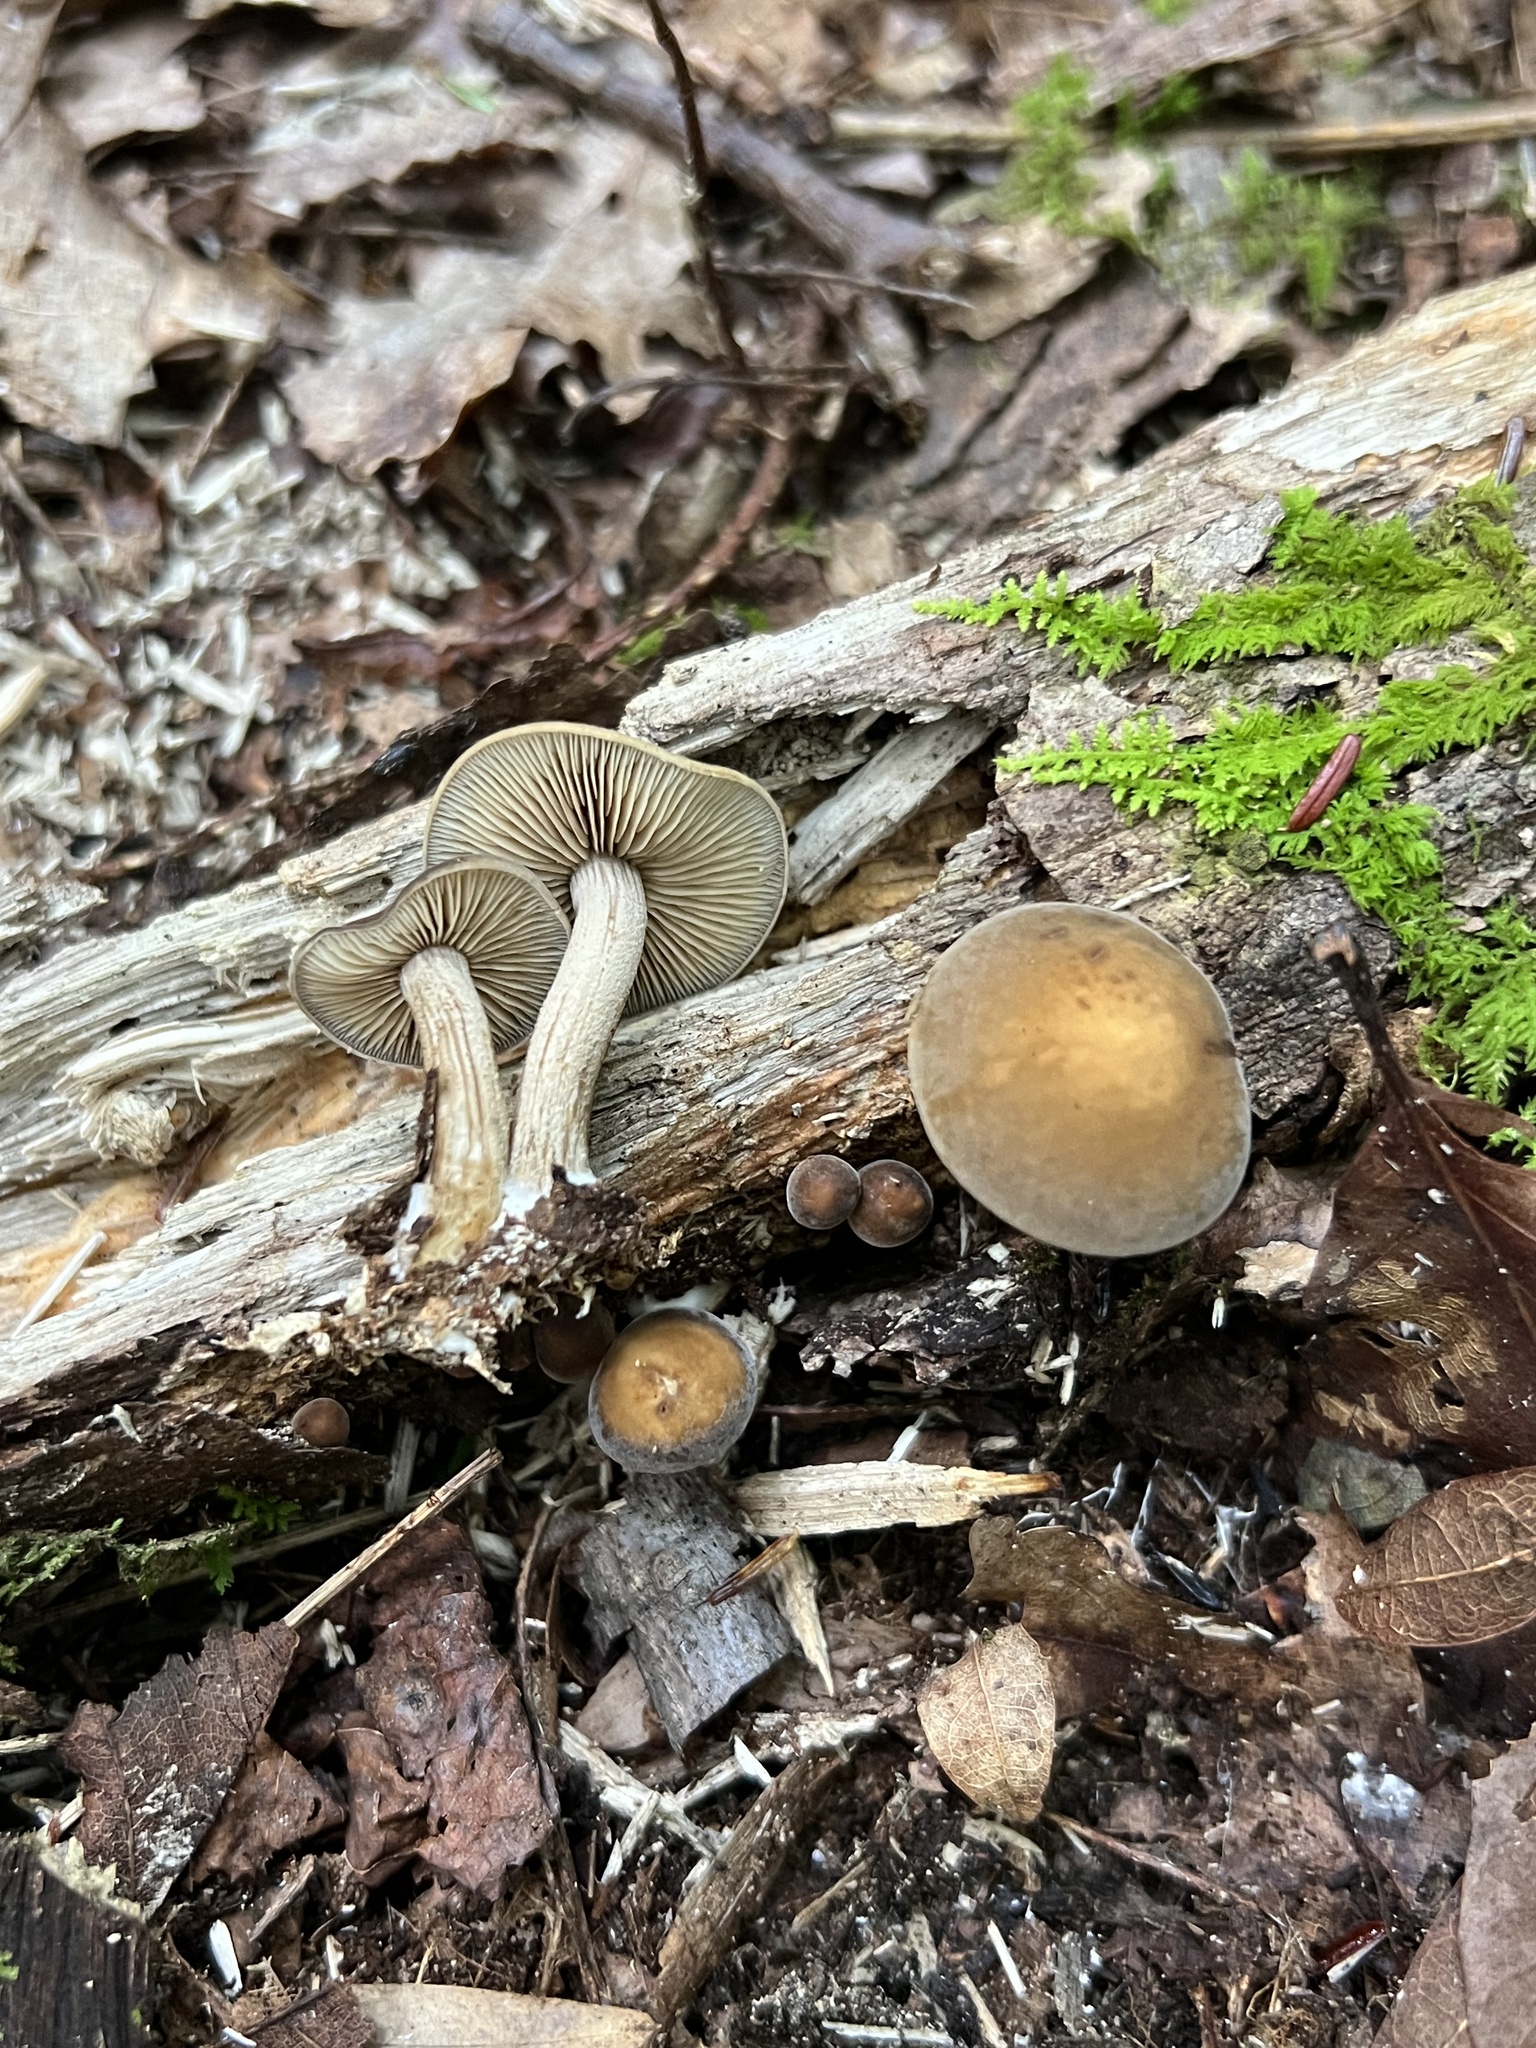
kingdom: Fungi
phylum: Basidiomycota
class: Agaricomycetes
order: Agaricales
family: Strophariaceae
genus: Agrocybe
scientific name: Agrocybe firma
